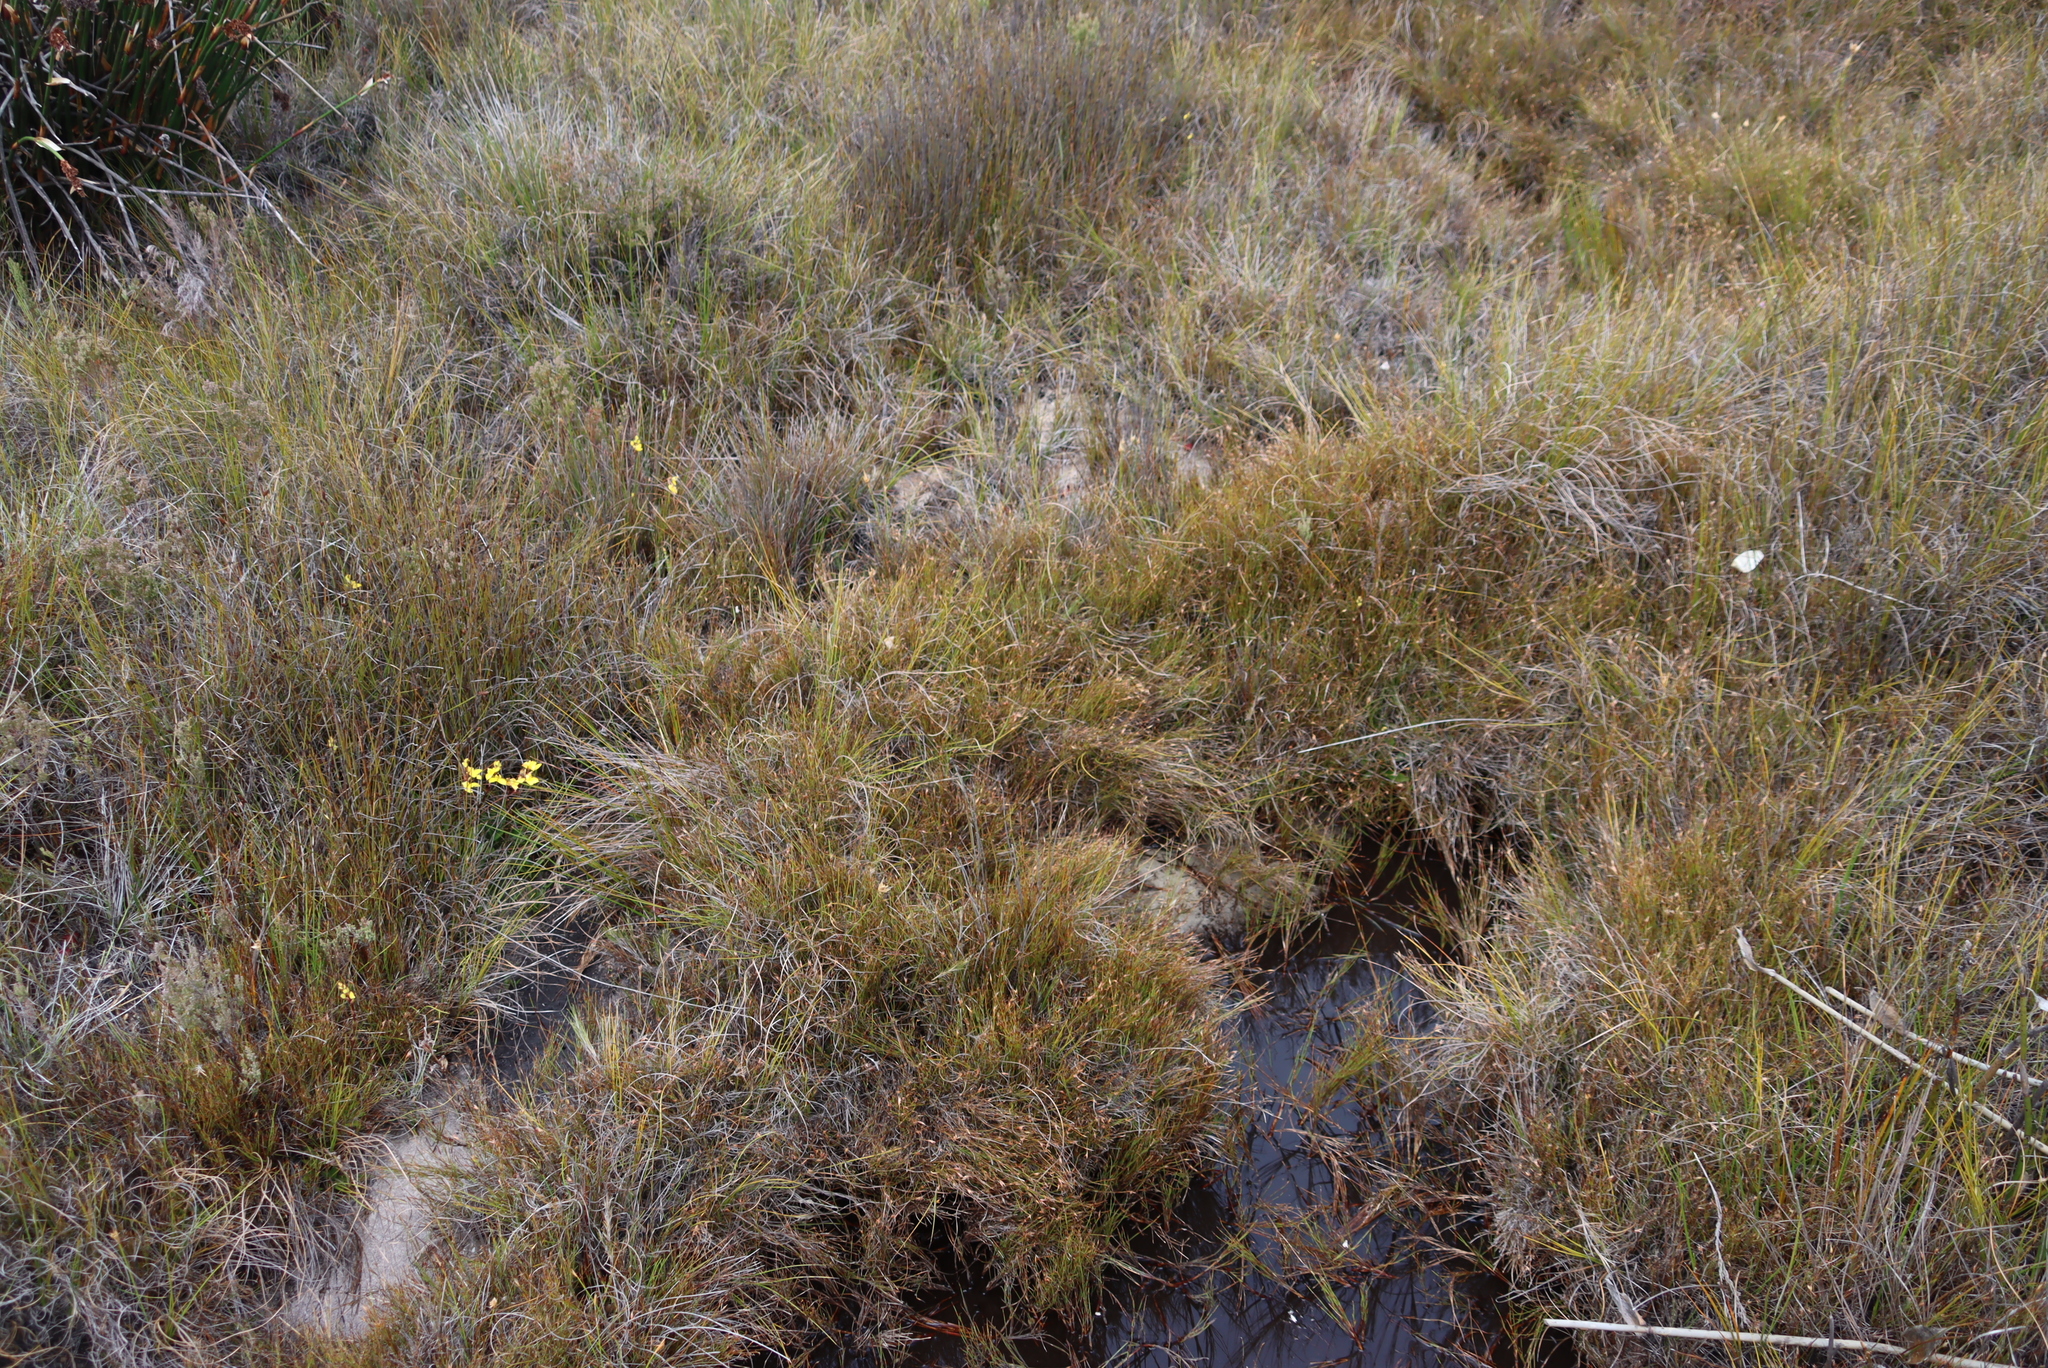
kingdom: Plantae
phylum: Tracheophyta
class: Liliopsida
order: Asparagales
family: Orchidaceae
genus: Disa
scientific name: Disa aurata
